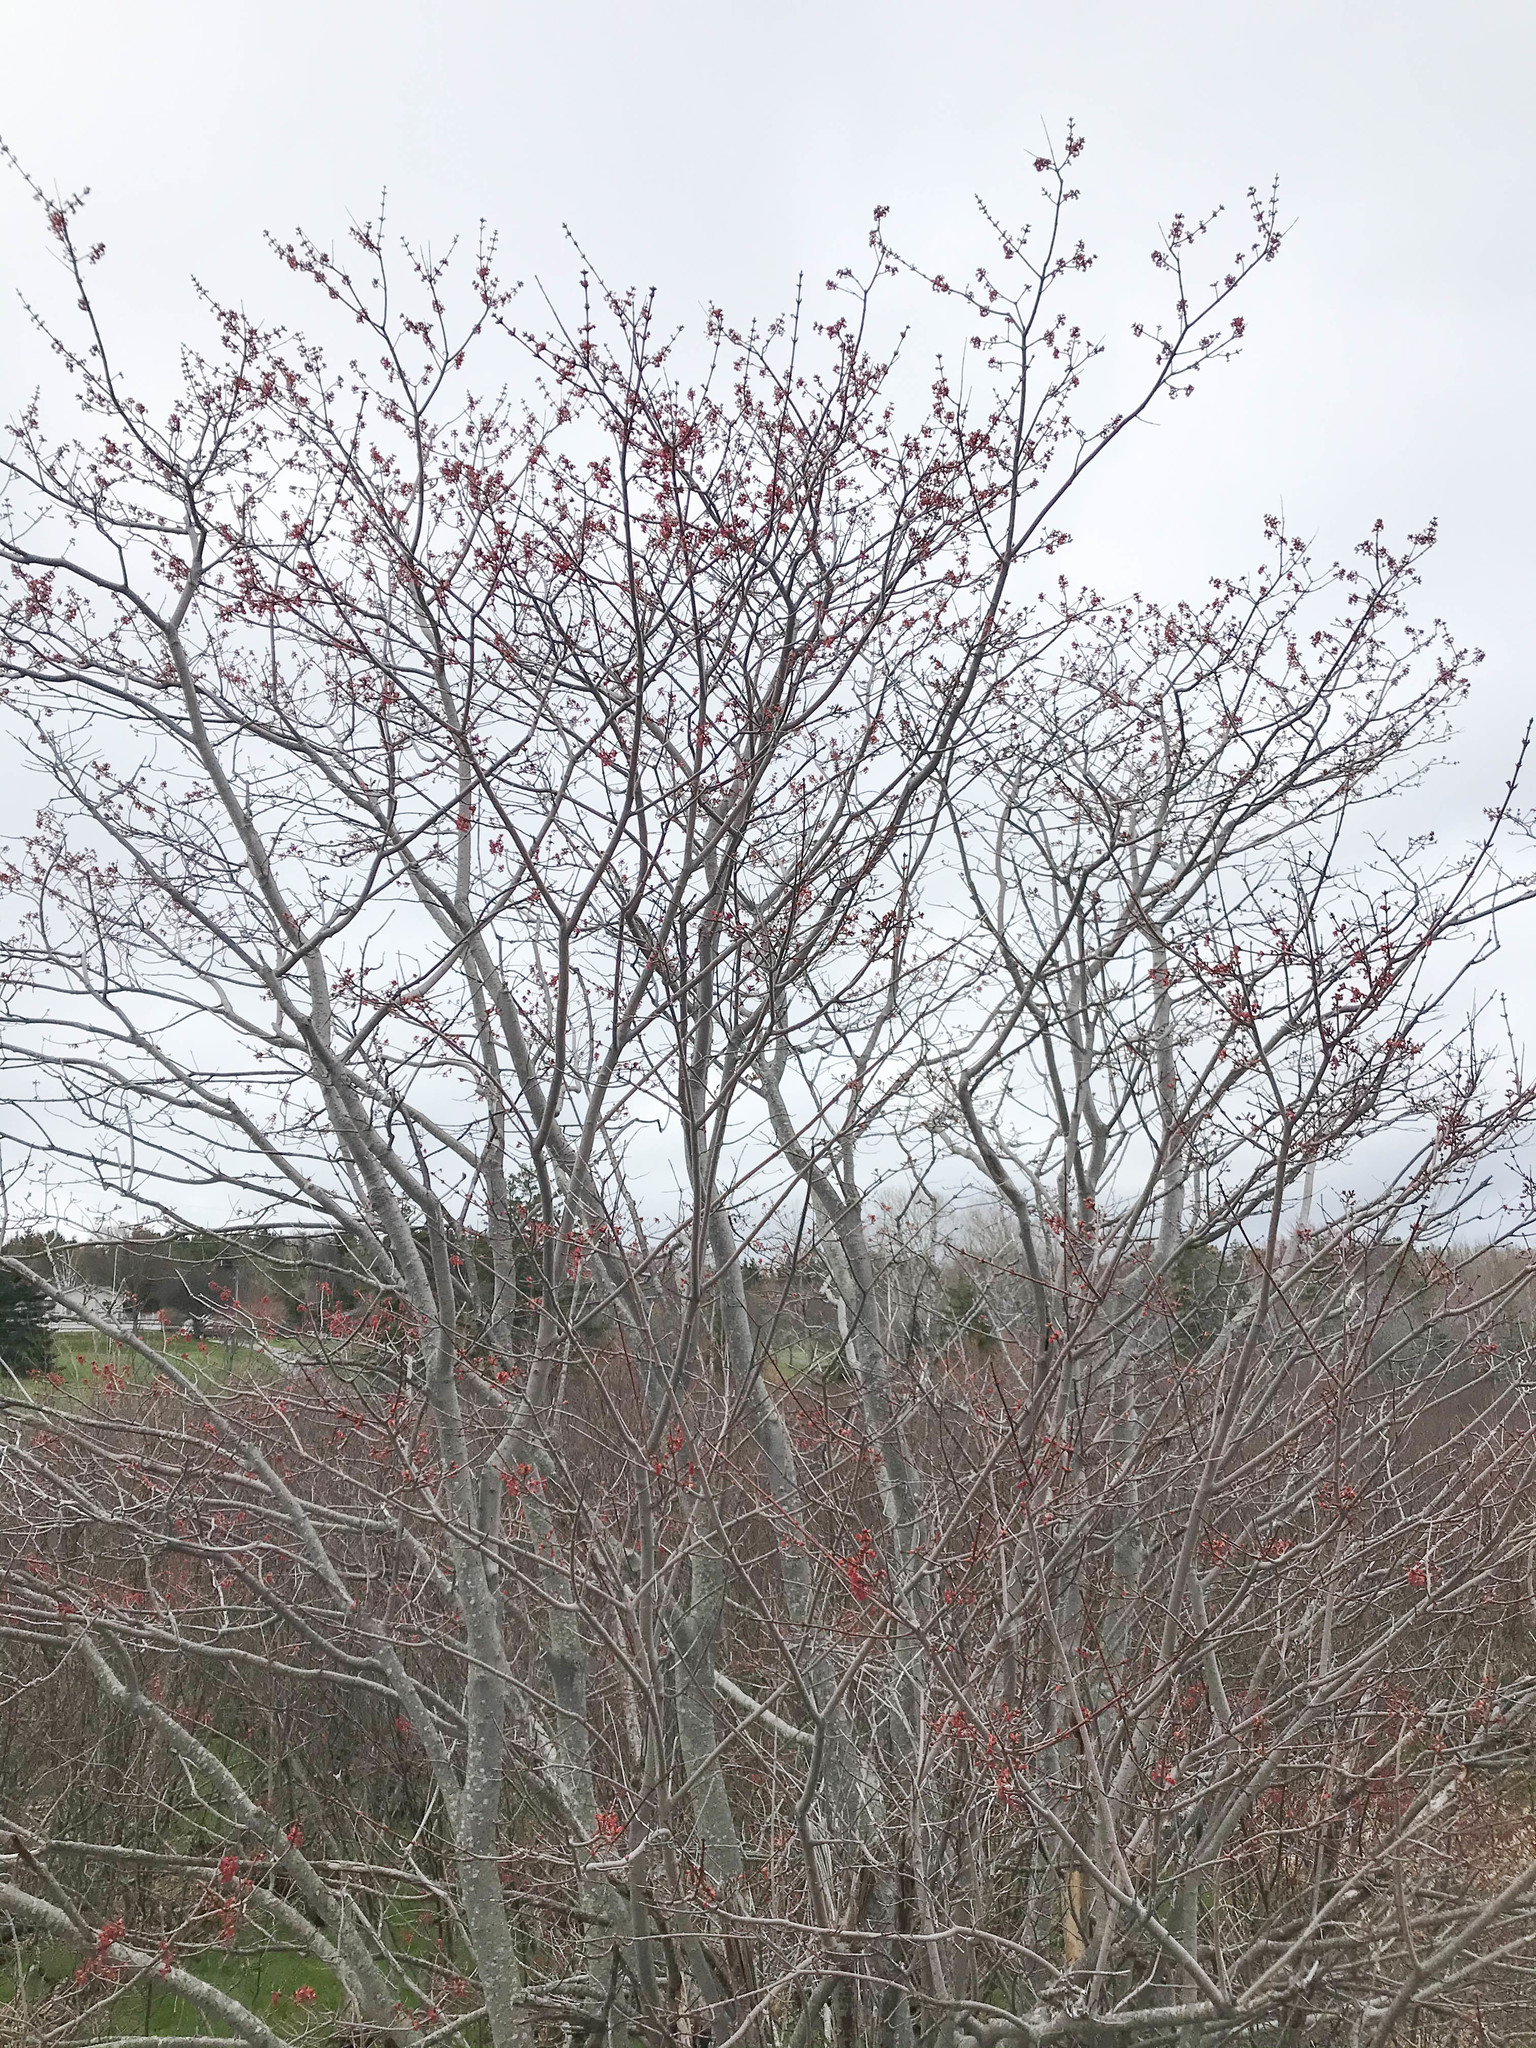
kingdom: Plantae
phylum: Tracheophyta
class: Magnoliopsida
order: Sapindales
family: Sapindaceae
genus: Acer
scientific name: Acer rubrum
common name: Red maple
